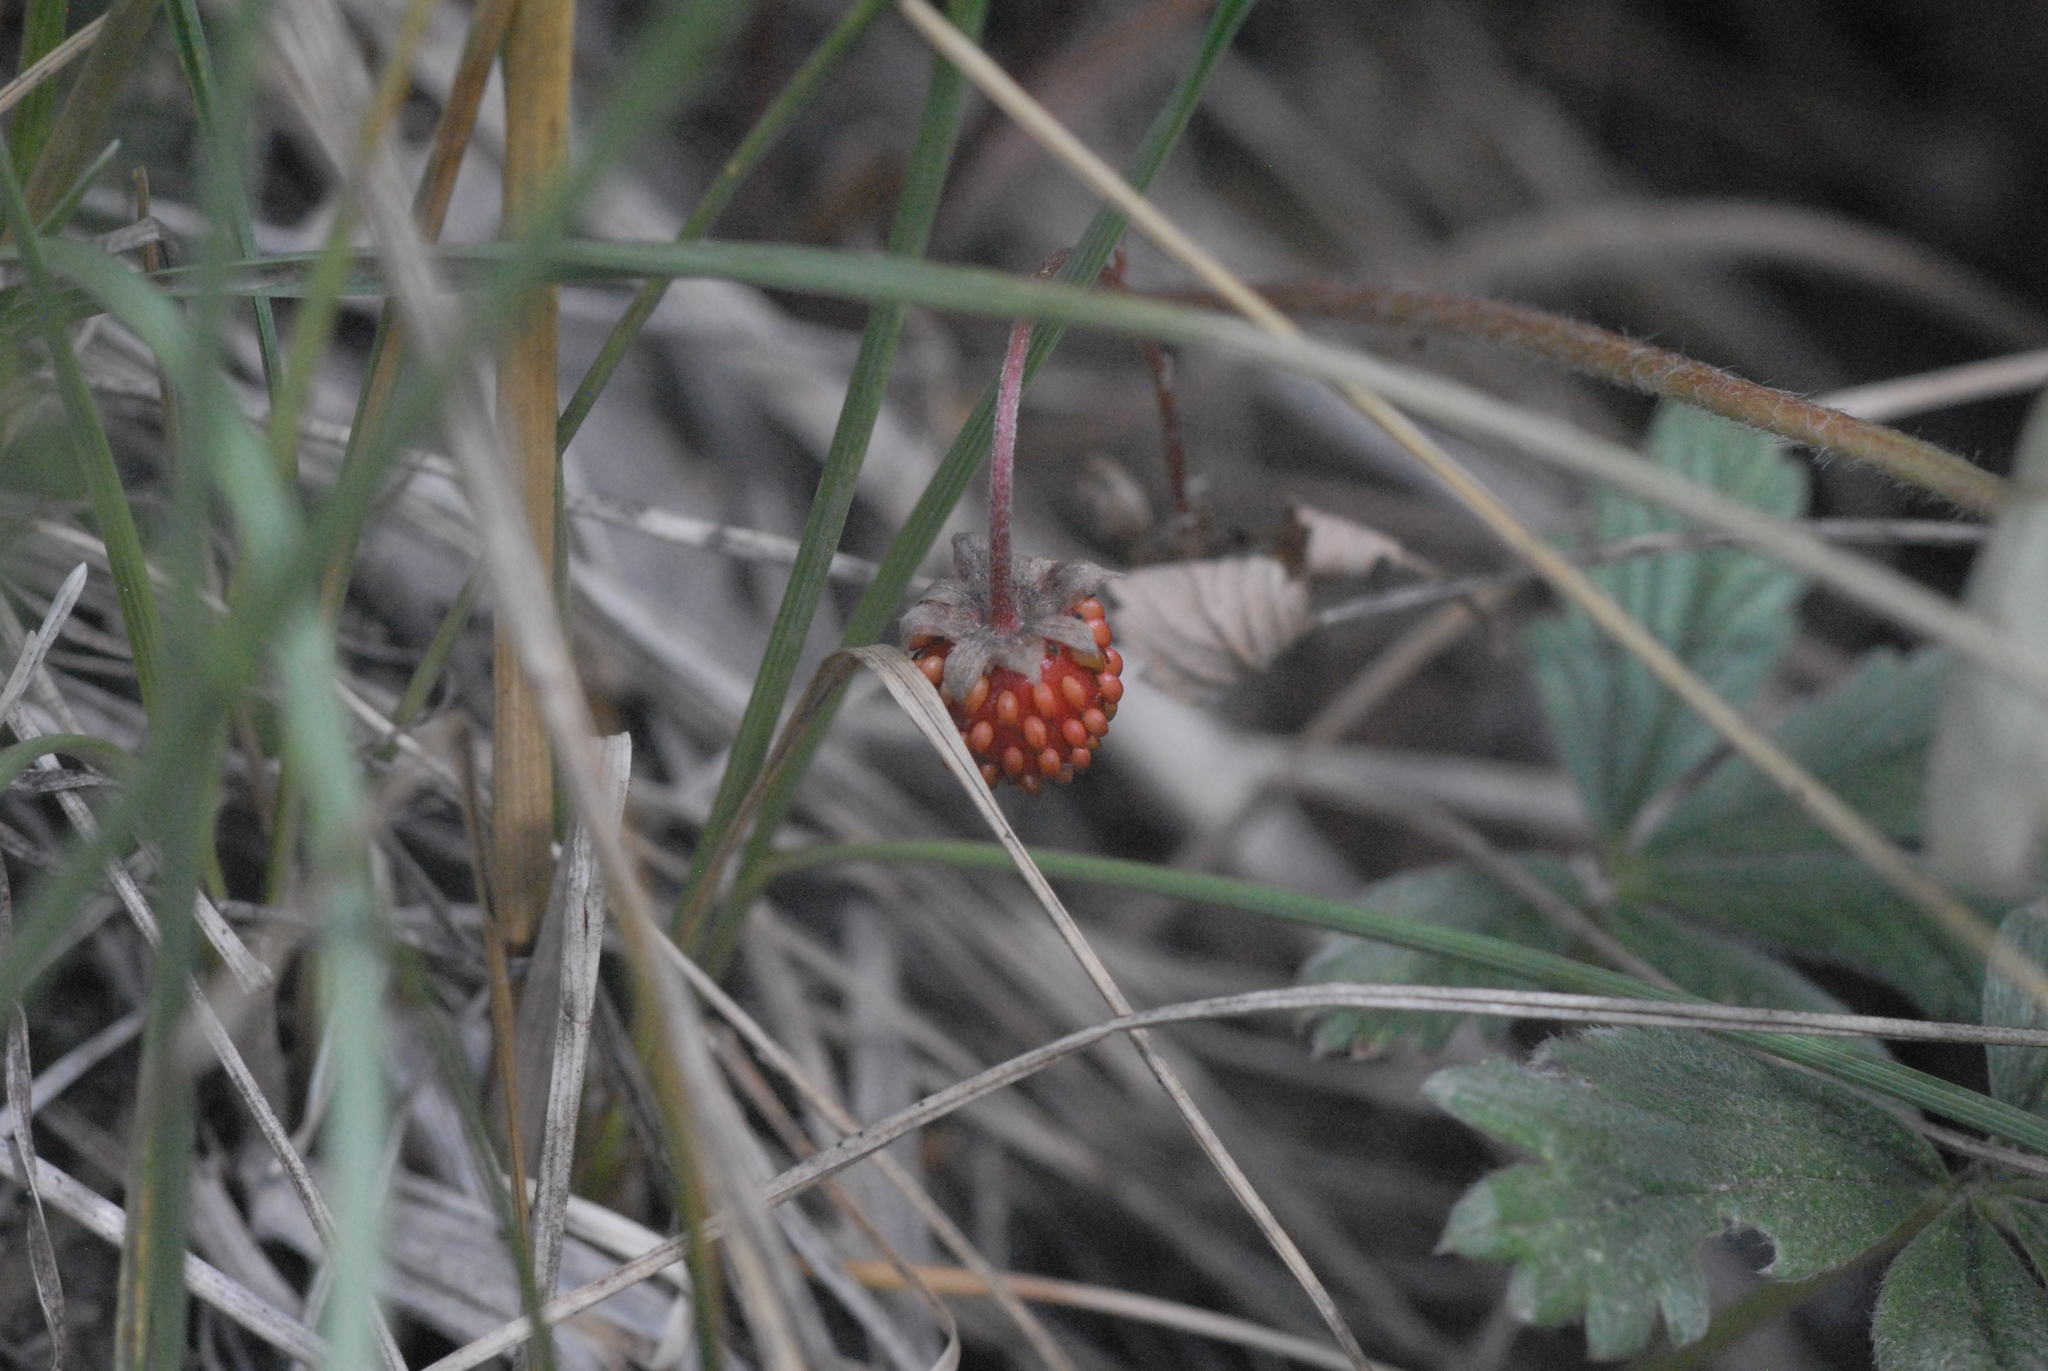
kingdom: Plantae
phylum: Tracheophyta
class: Magnoliopsida
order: Rosales
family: Rosaceae
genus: Fragaria
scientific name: Fragaria vesca
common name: Wild strawberry
